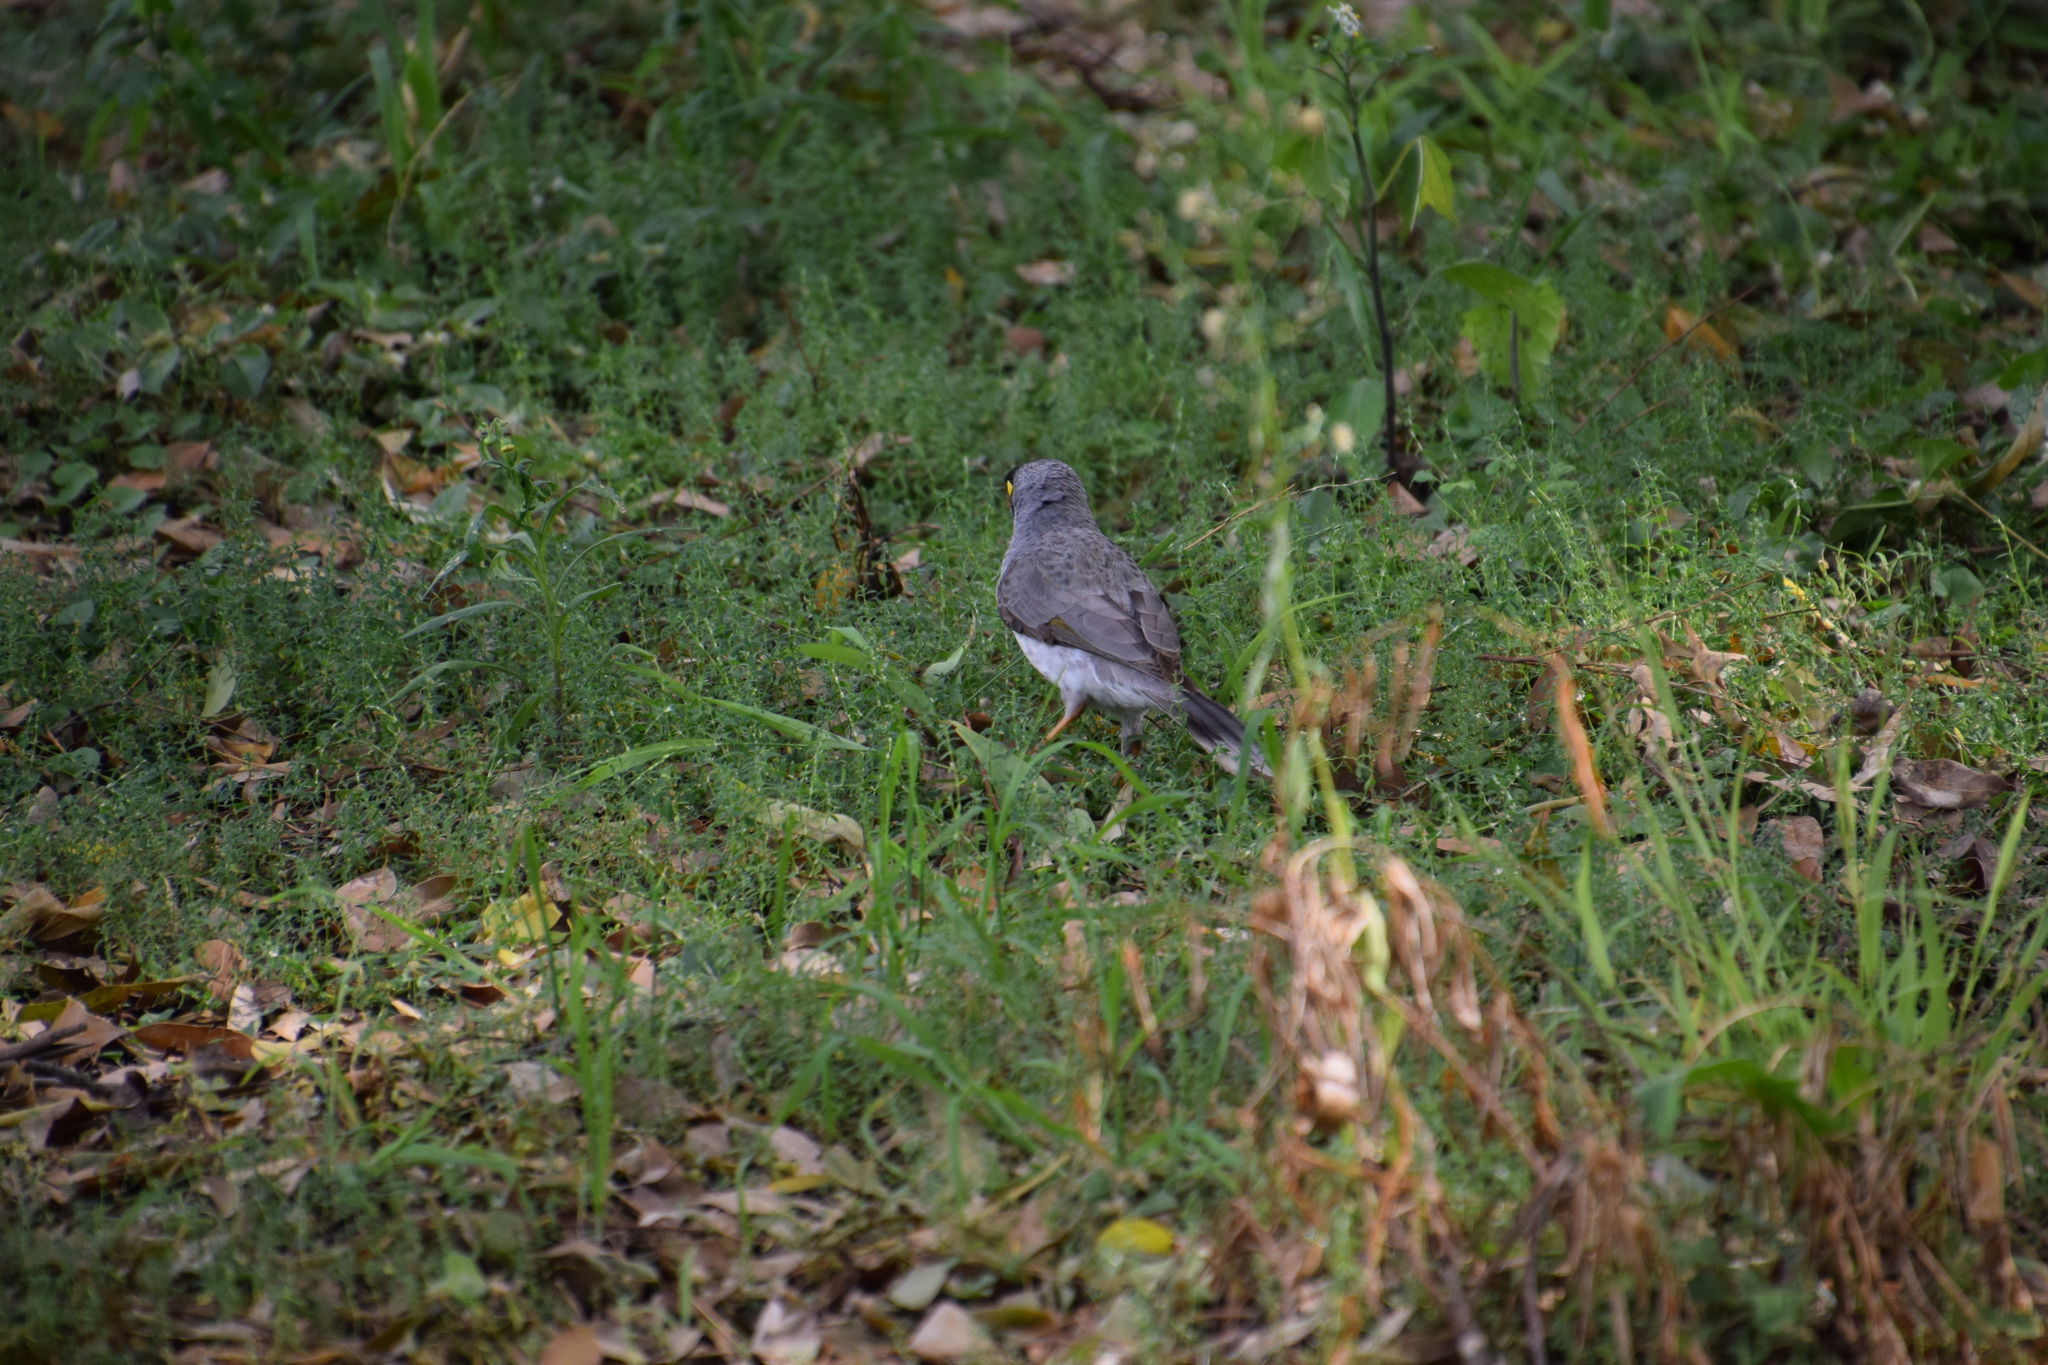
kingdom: Animalia
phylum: Chordata
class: Aves
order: Passeriformes
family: Meliphagidae
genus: Manorina
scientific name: Manorina melanocephala
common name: Noisy miner
